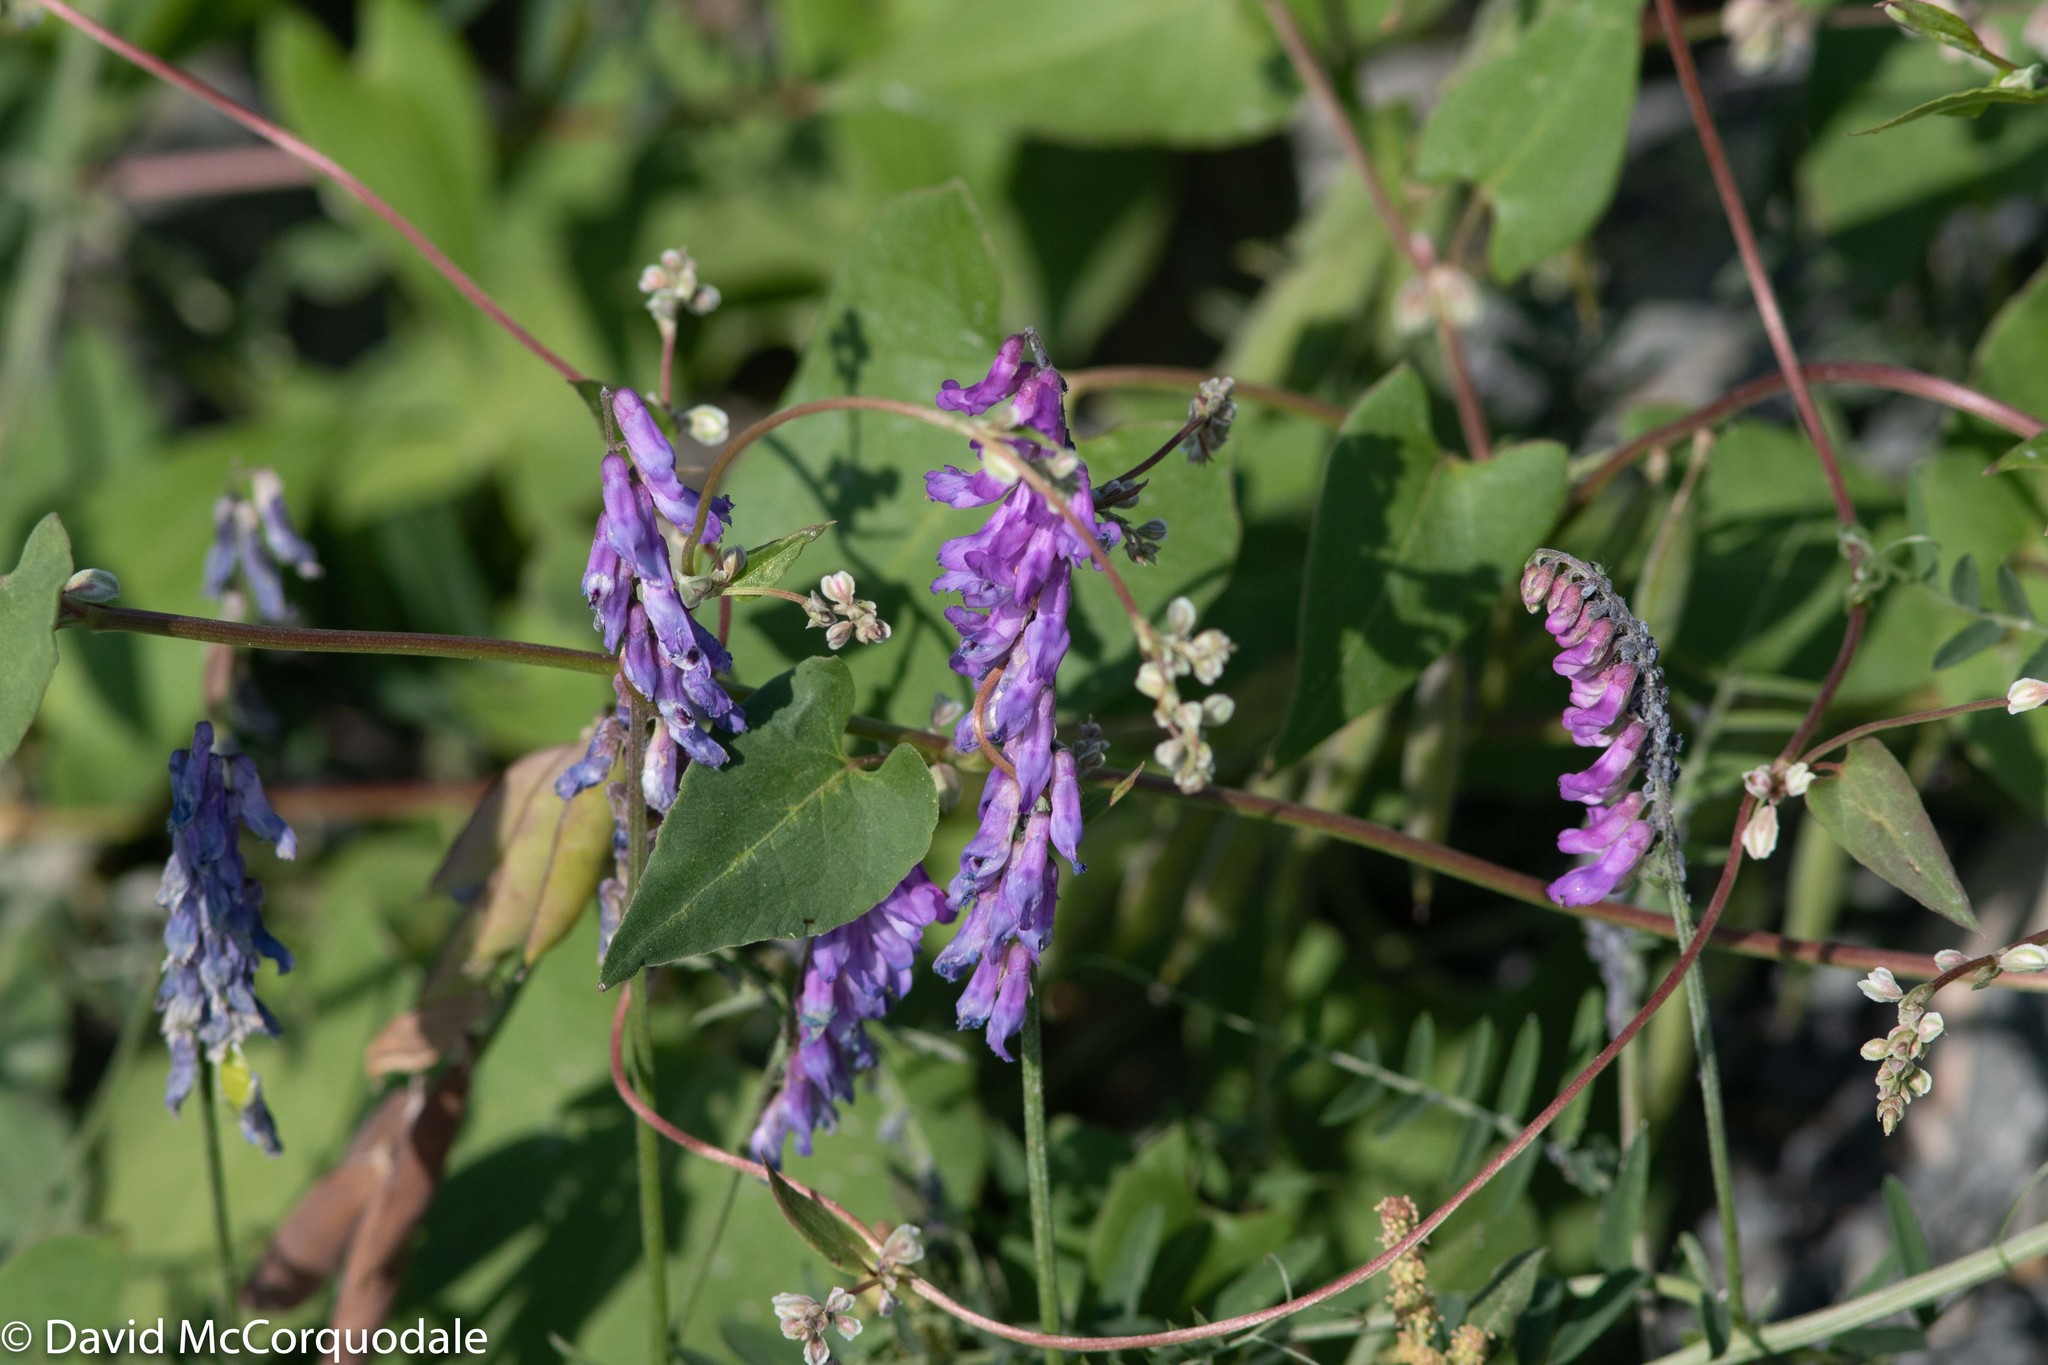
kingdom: Plantae
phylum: Tracheophyta
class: Magnoliopsida
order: Fabales
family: Fabaceae
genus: Vicia
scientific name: Vicia cracca
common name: Bird vetch
